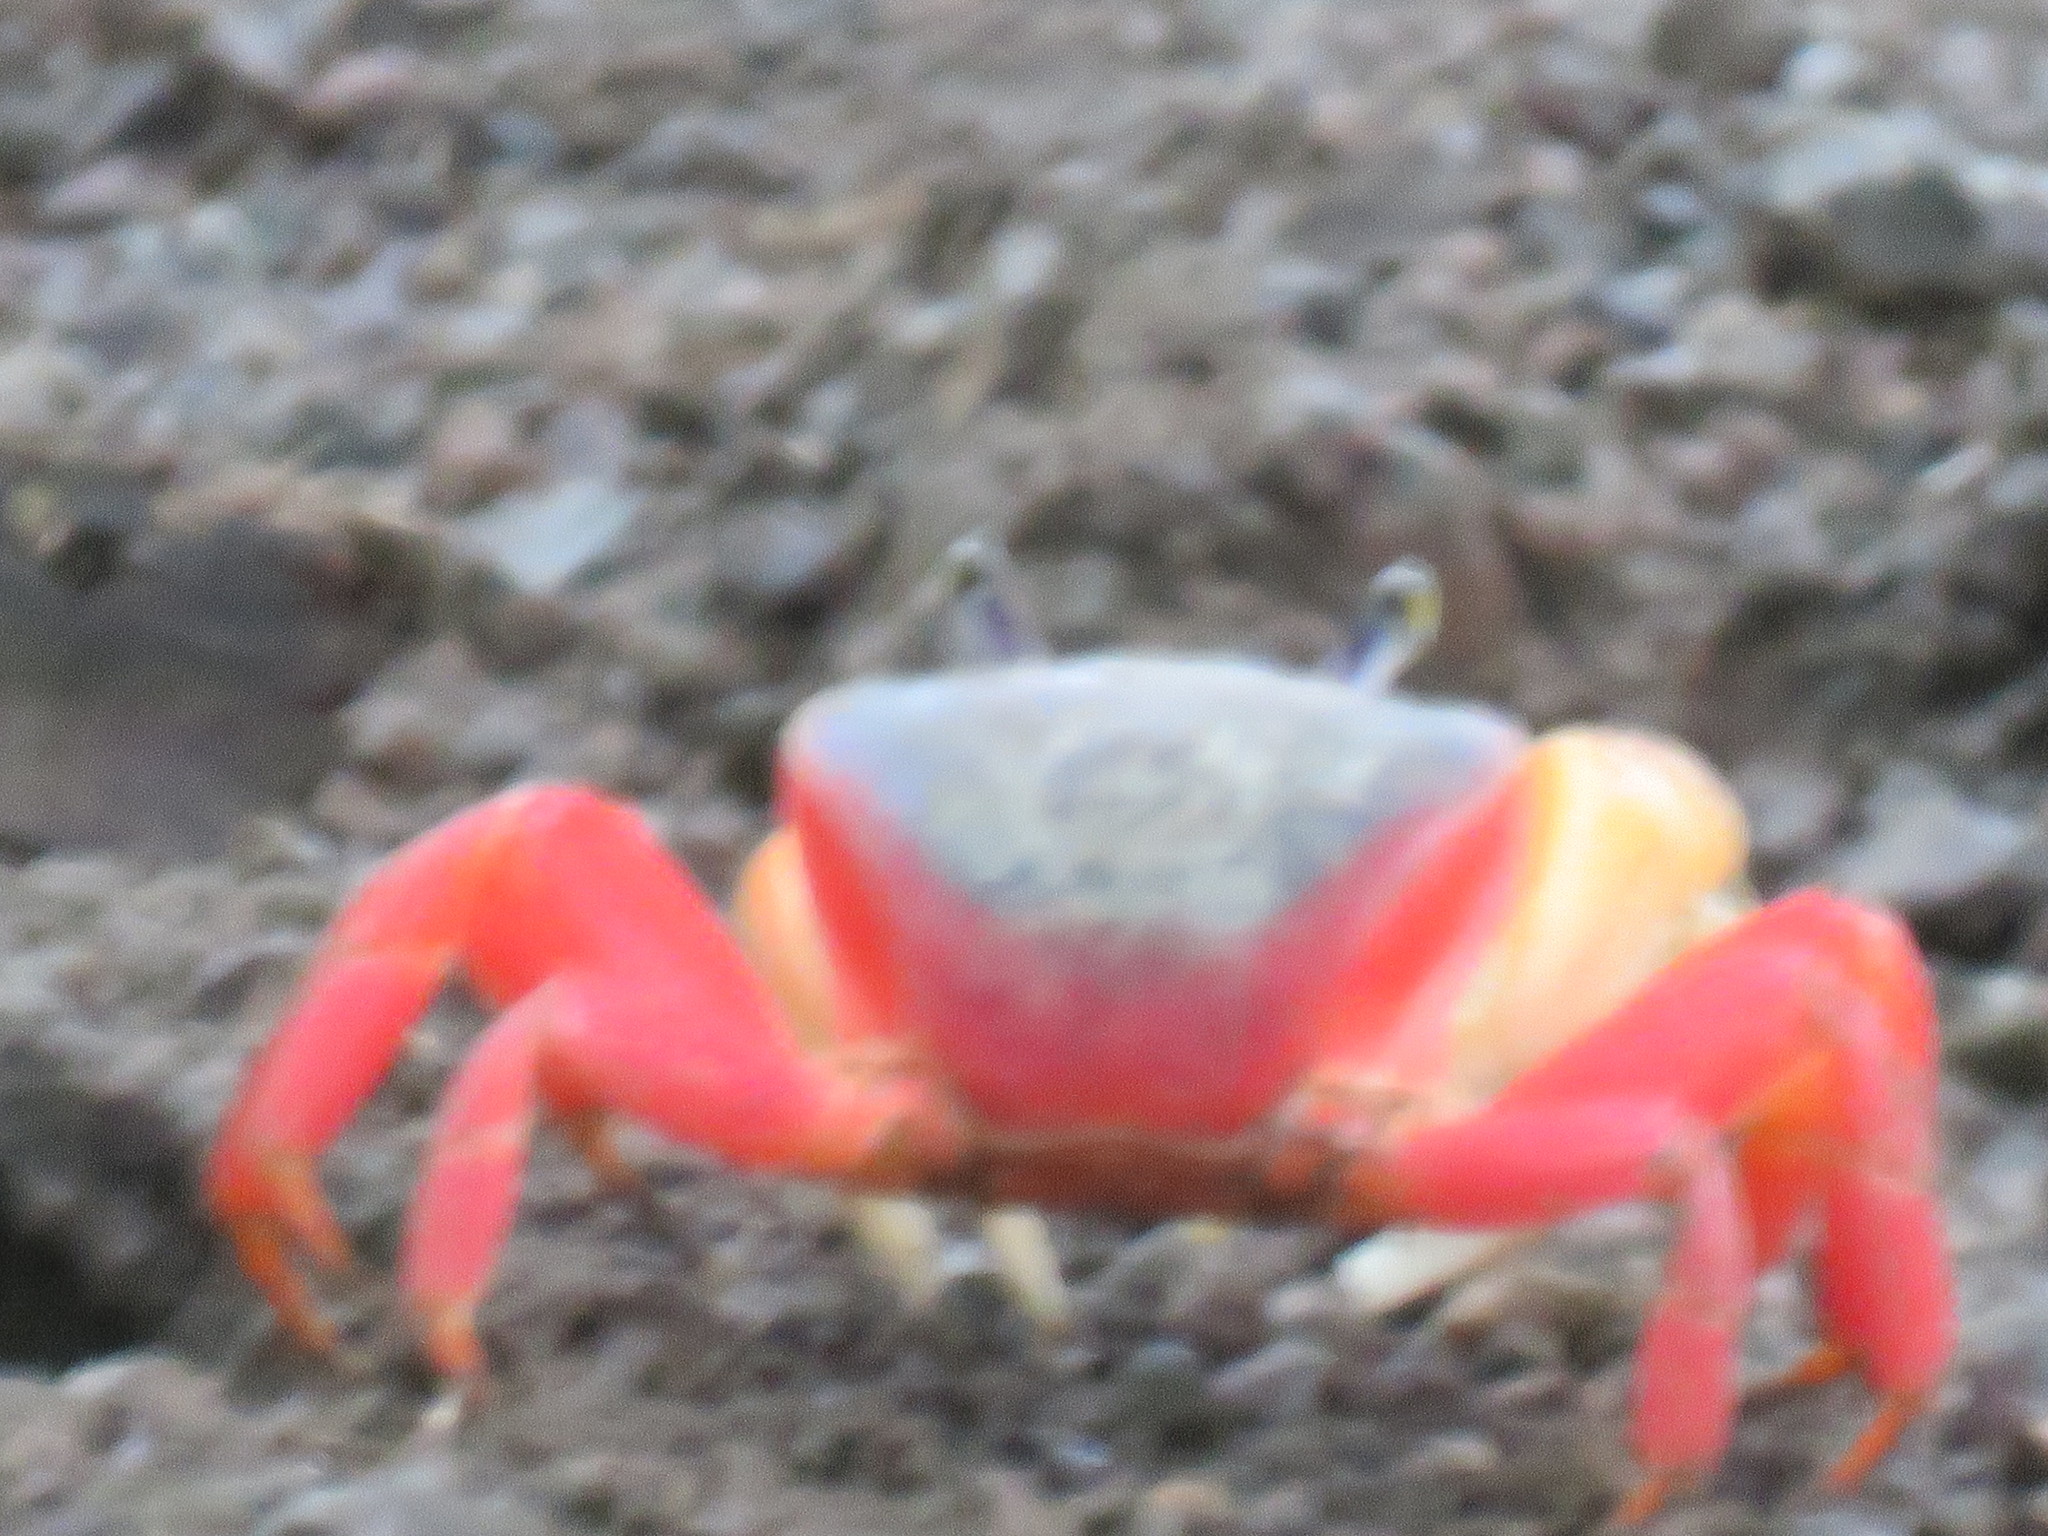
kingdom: Animalia
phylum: Arthropoda
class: Malacostraca
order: Decapoda
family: Gecarcinidae
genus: Cardisoma
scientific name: Cardisoma crassum
